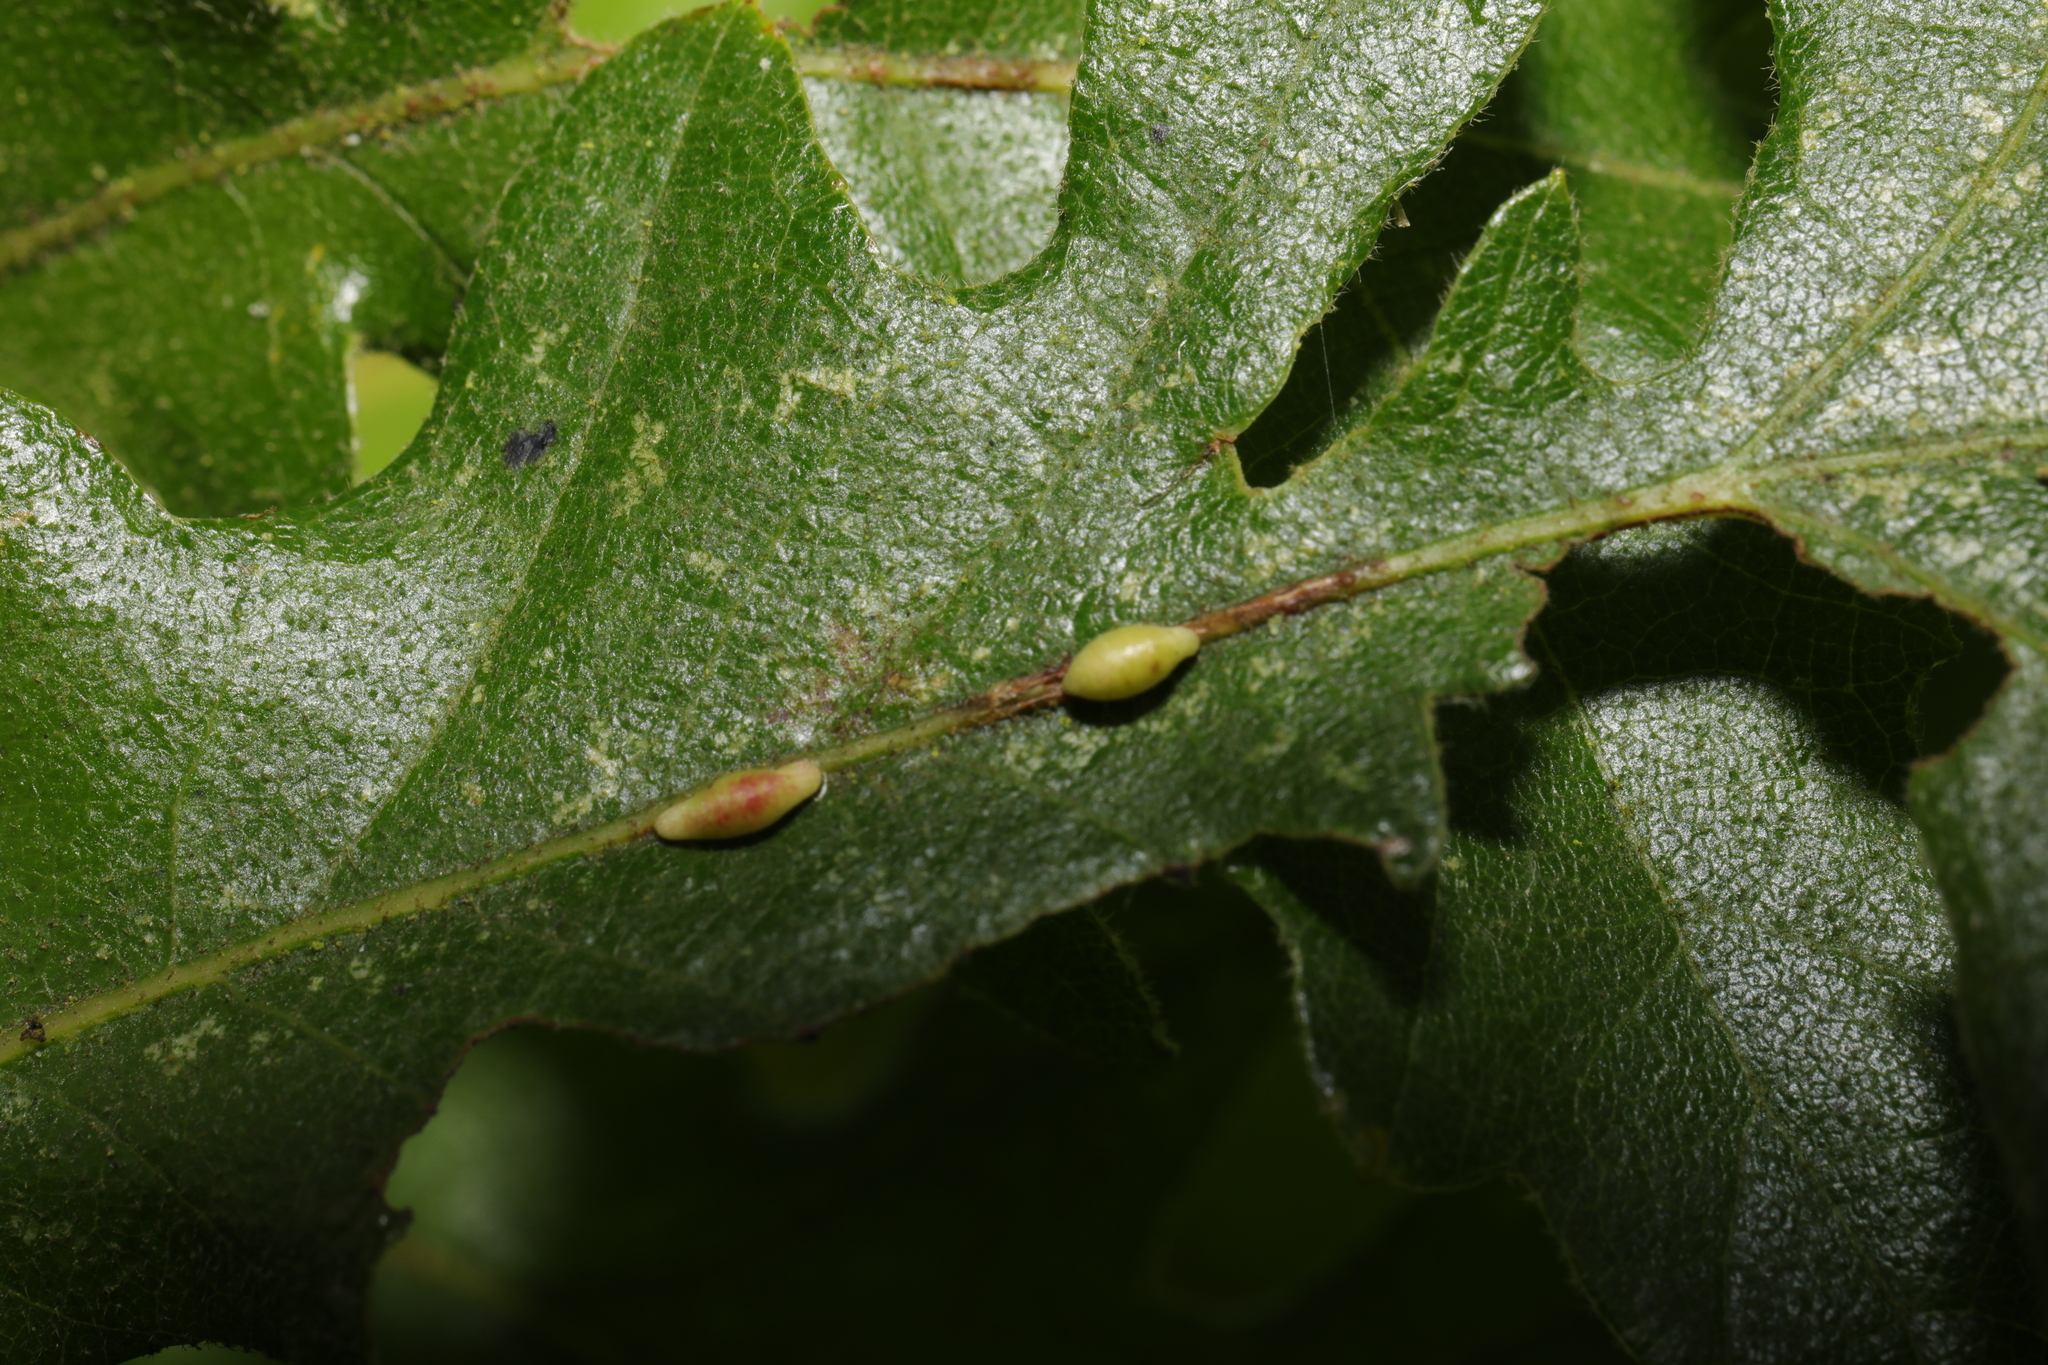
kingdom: Animalia
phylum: Arthropoda
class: Insecta
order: Hymenoptera
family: Cynipidae
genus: Neuroterus
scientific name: Neuroterus saliens
